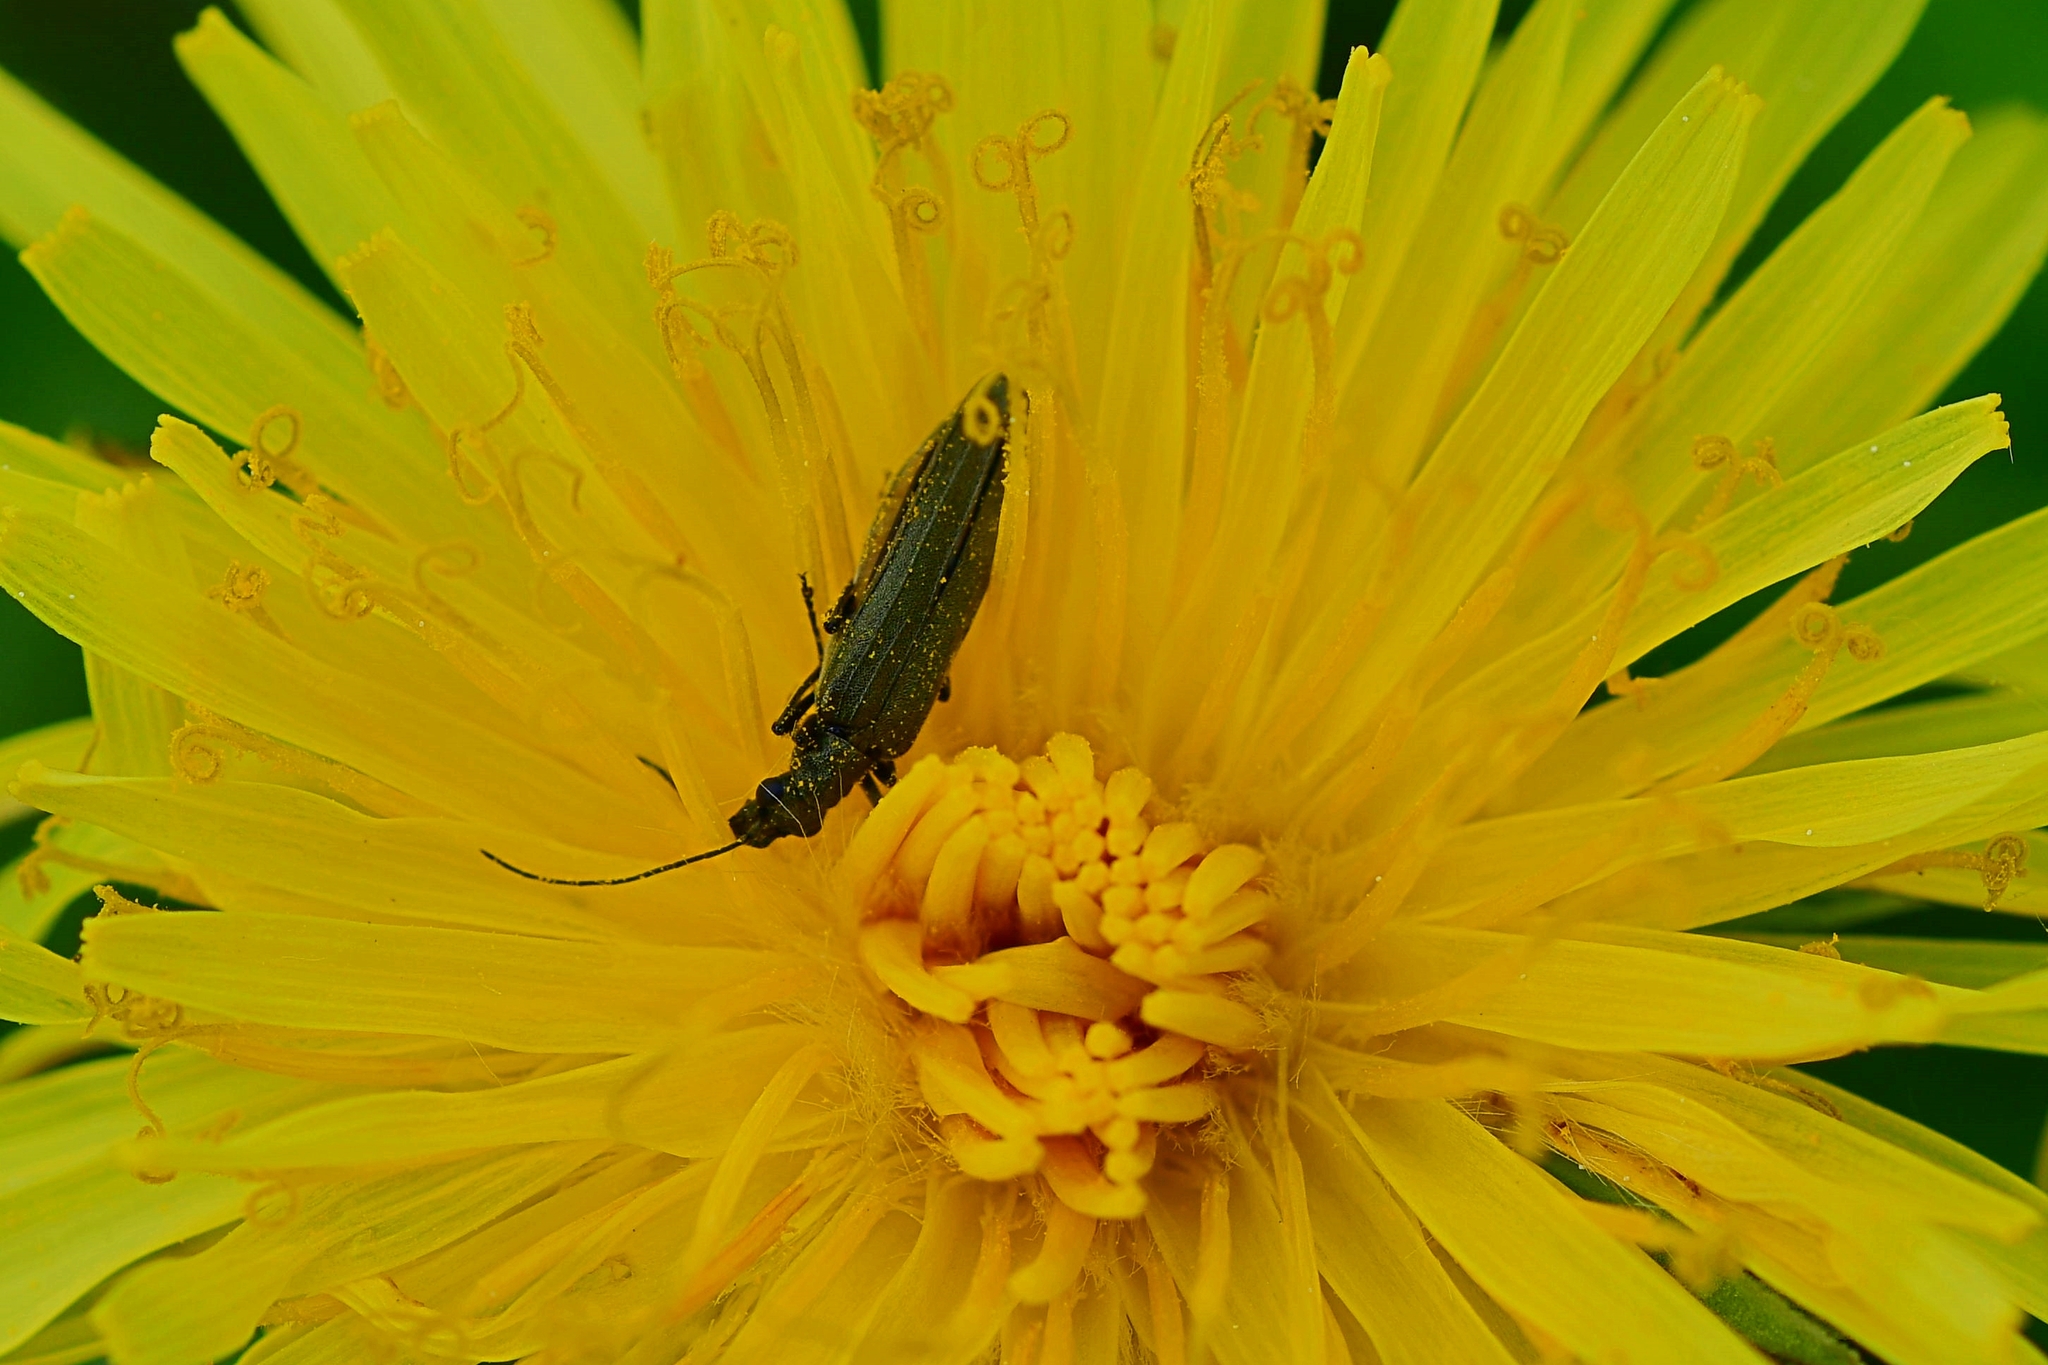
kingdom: Animalia
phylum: Arthropoda
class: Insecta
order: Coleoptera
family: Oedemeridae
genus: Oedemera
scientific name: Oedemera virescens
